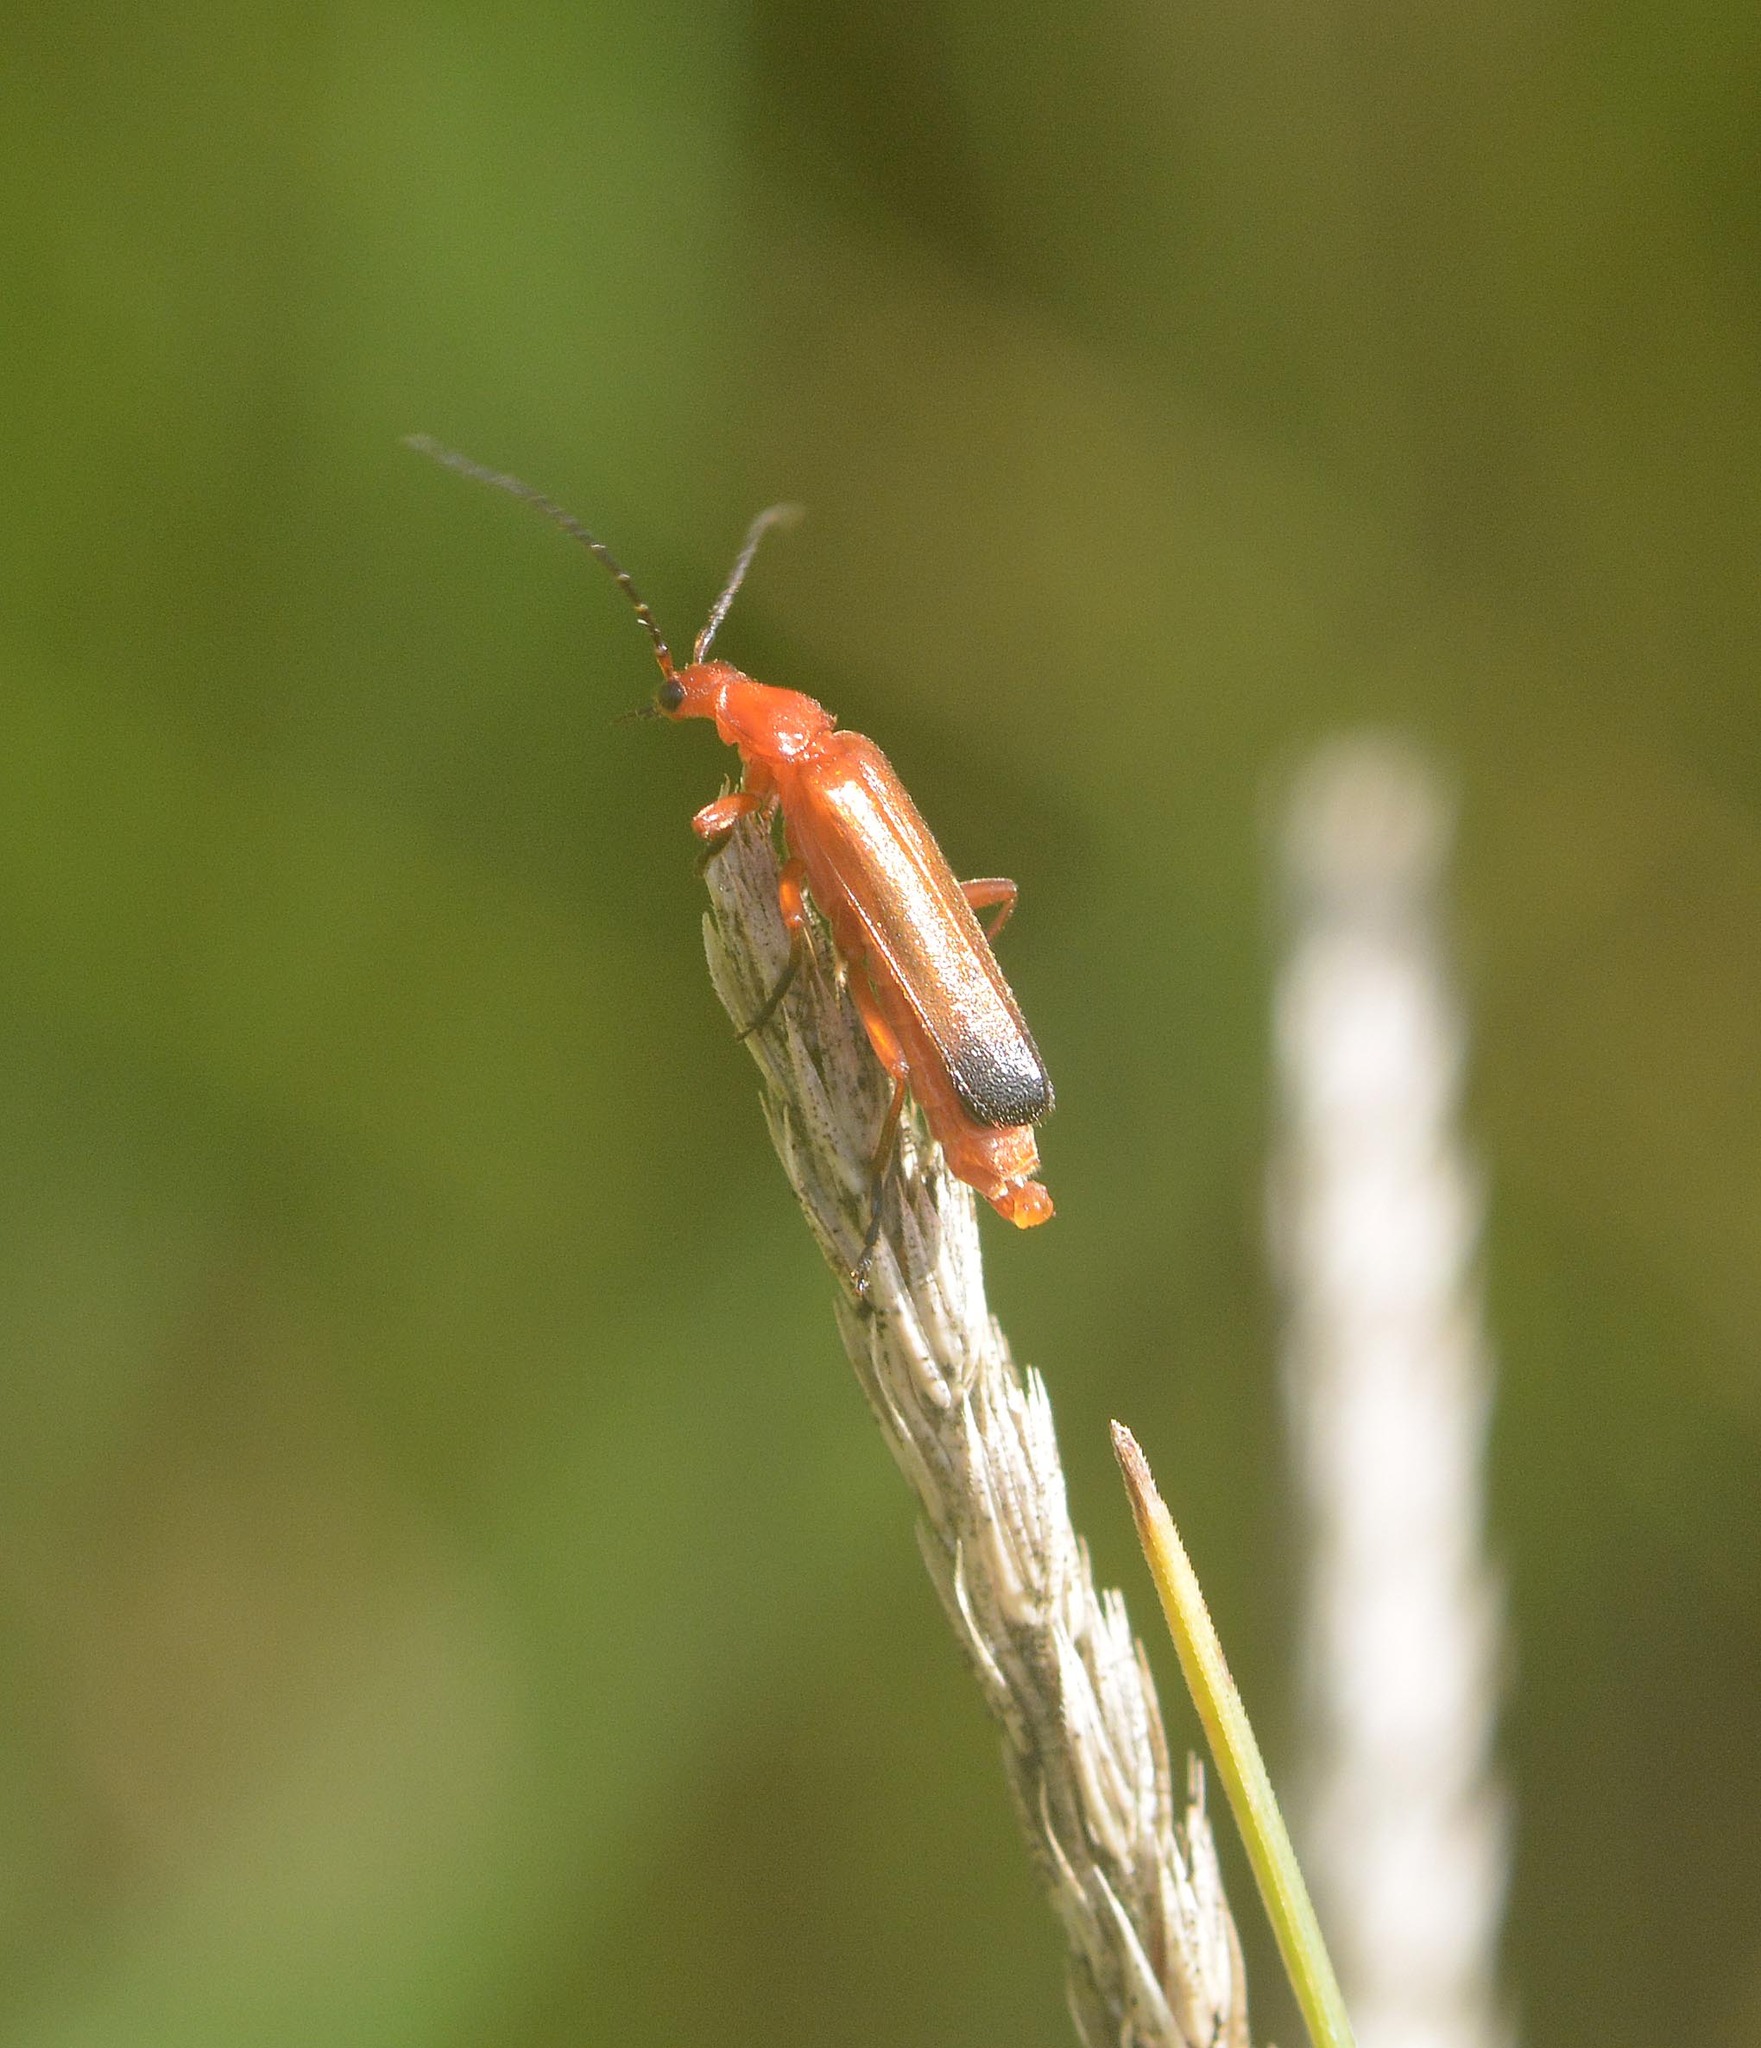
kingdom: Animalia
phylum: Arthropoda
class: Insecta
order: Coleoptera
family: Cantharidae
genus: Rhagonycha
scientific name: Rhagonycha fulva
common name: Common red soldier beetle
